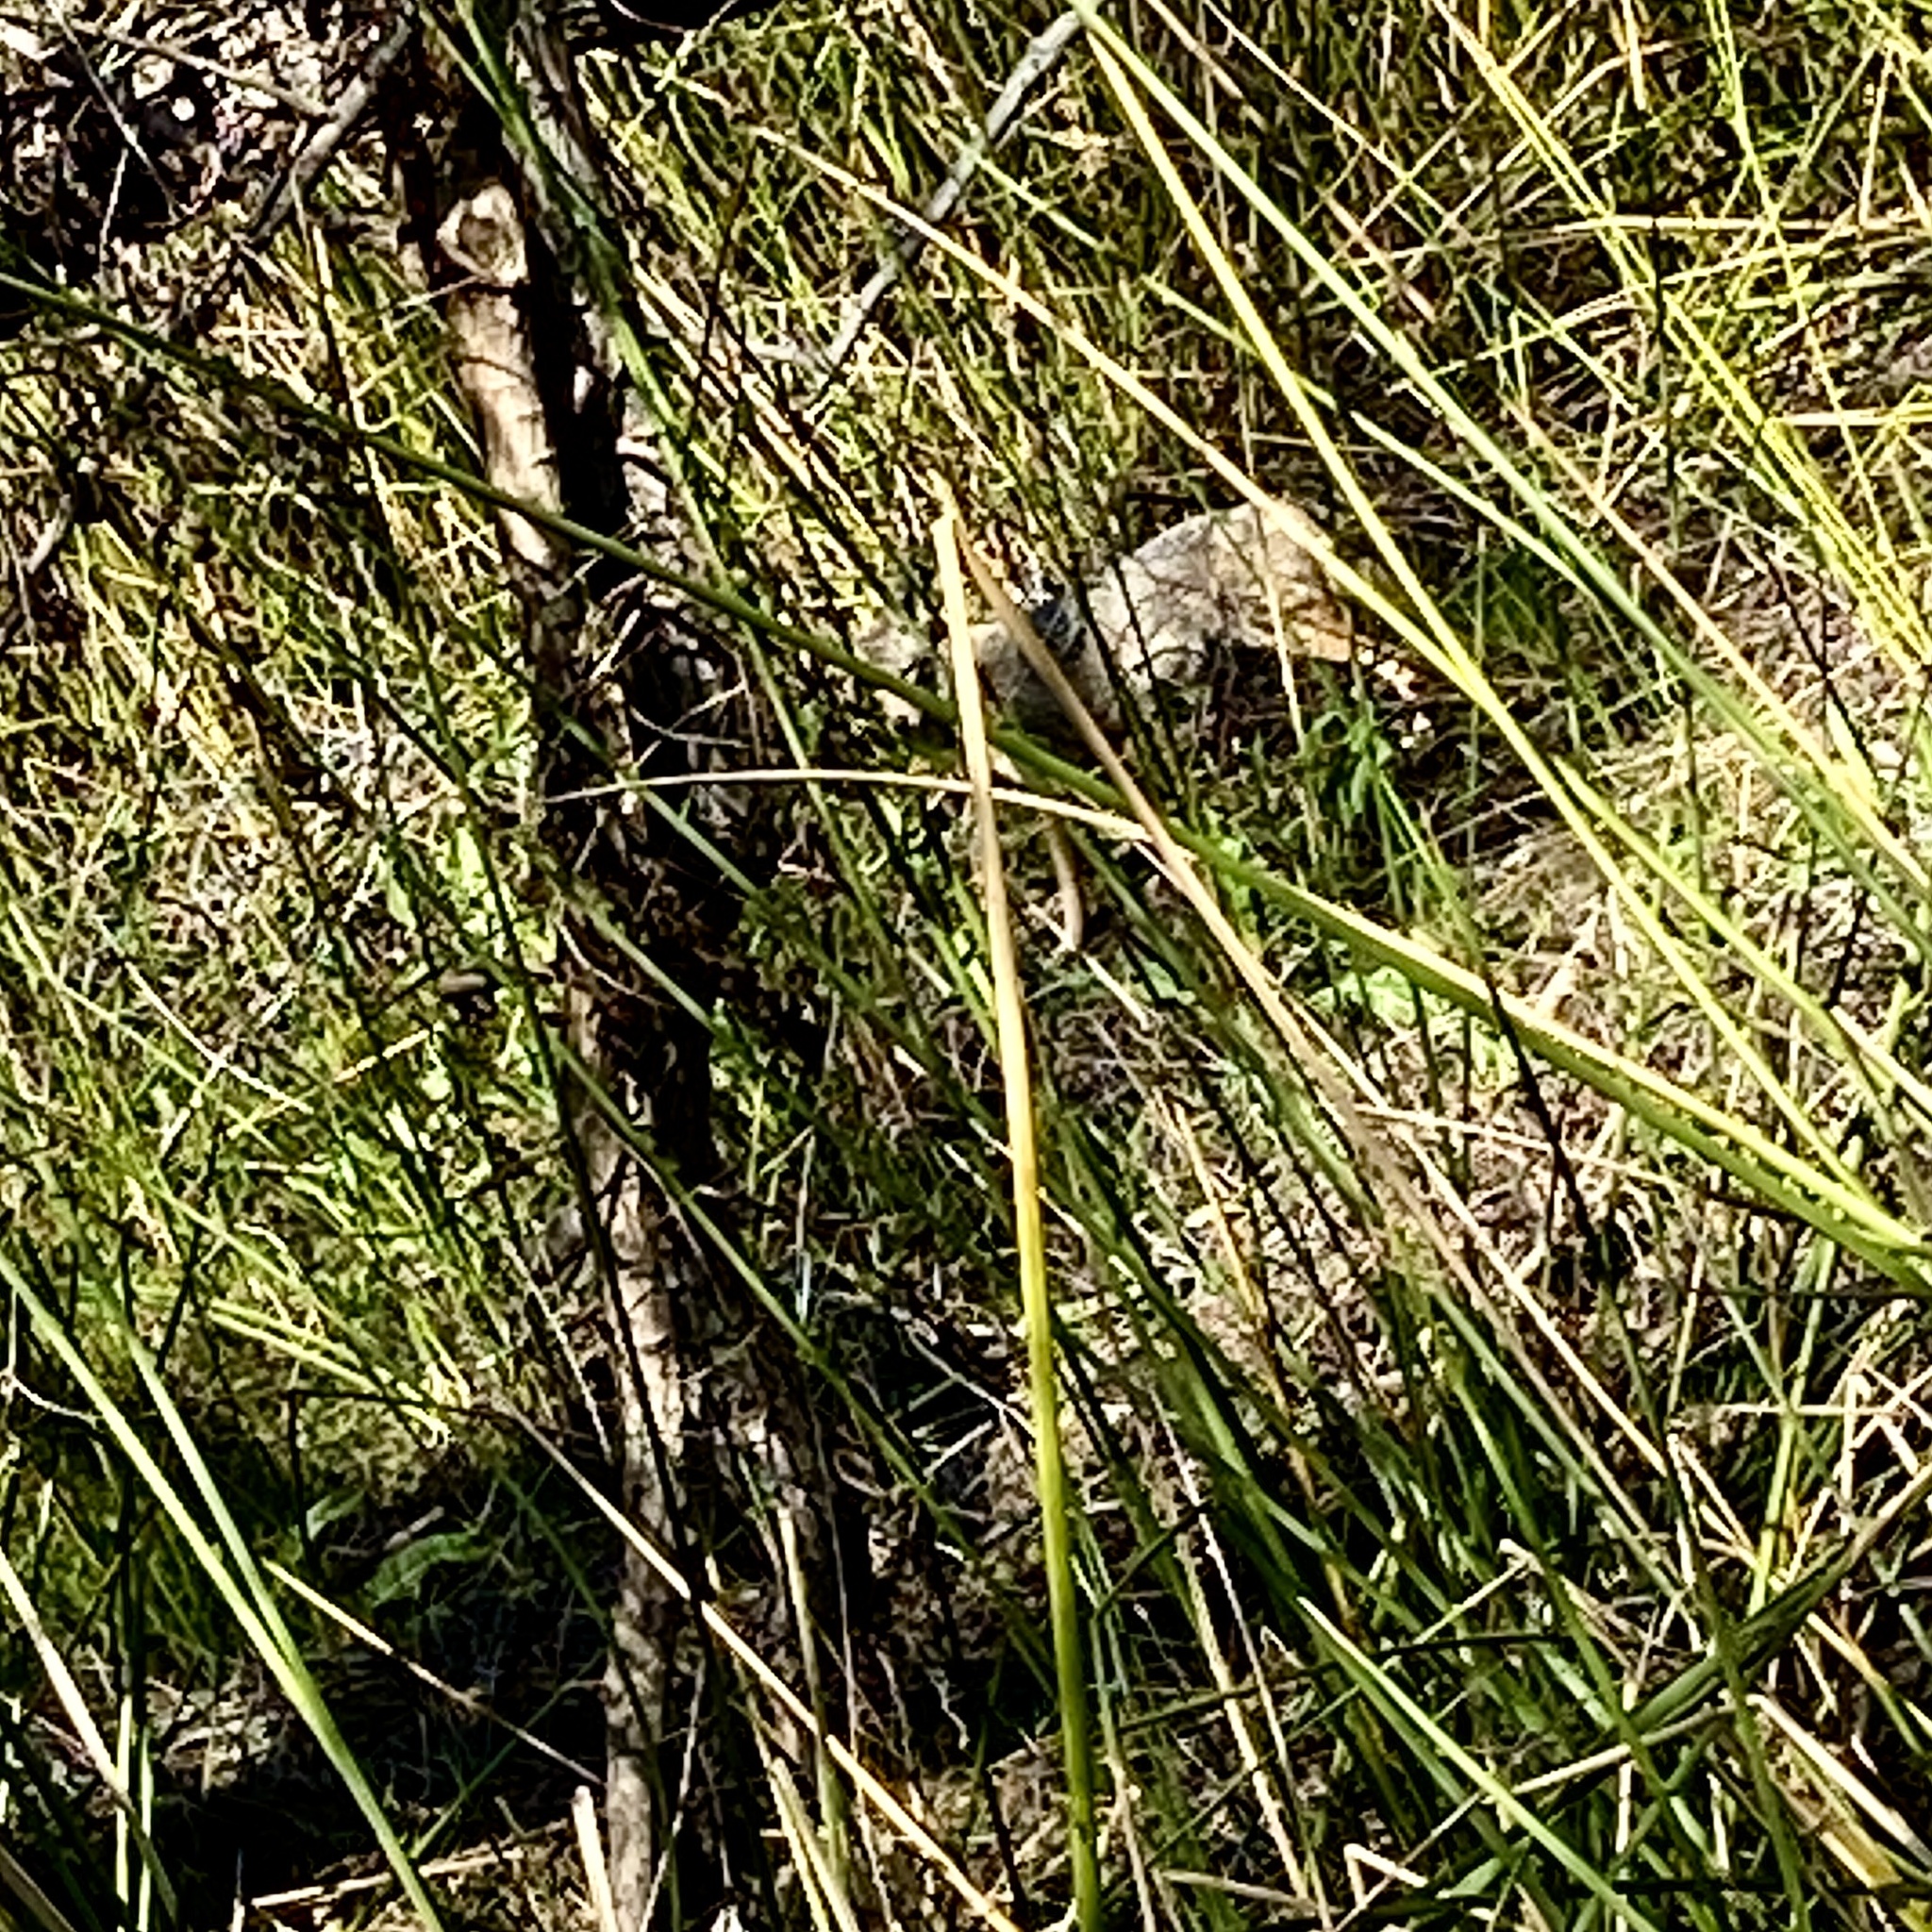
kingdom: Animalia
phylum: Chordata
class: Mammalia
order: Carnivora
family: Canidae
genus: Canis
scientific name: Canis latrans
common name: Coyote
